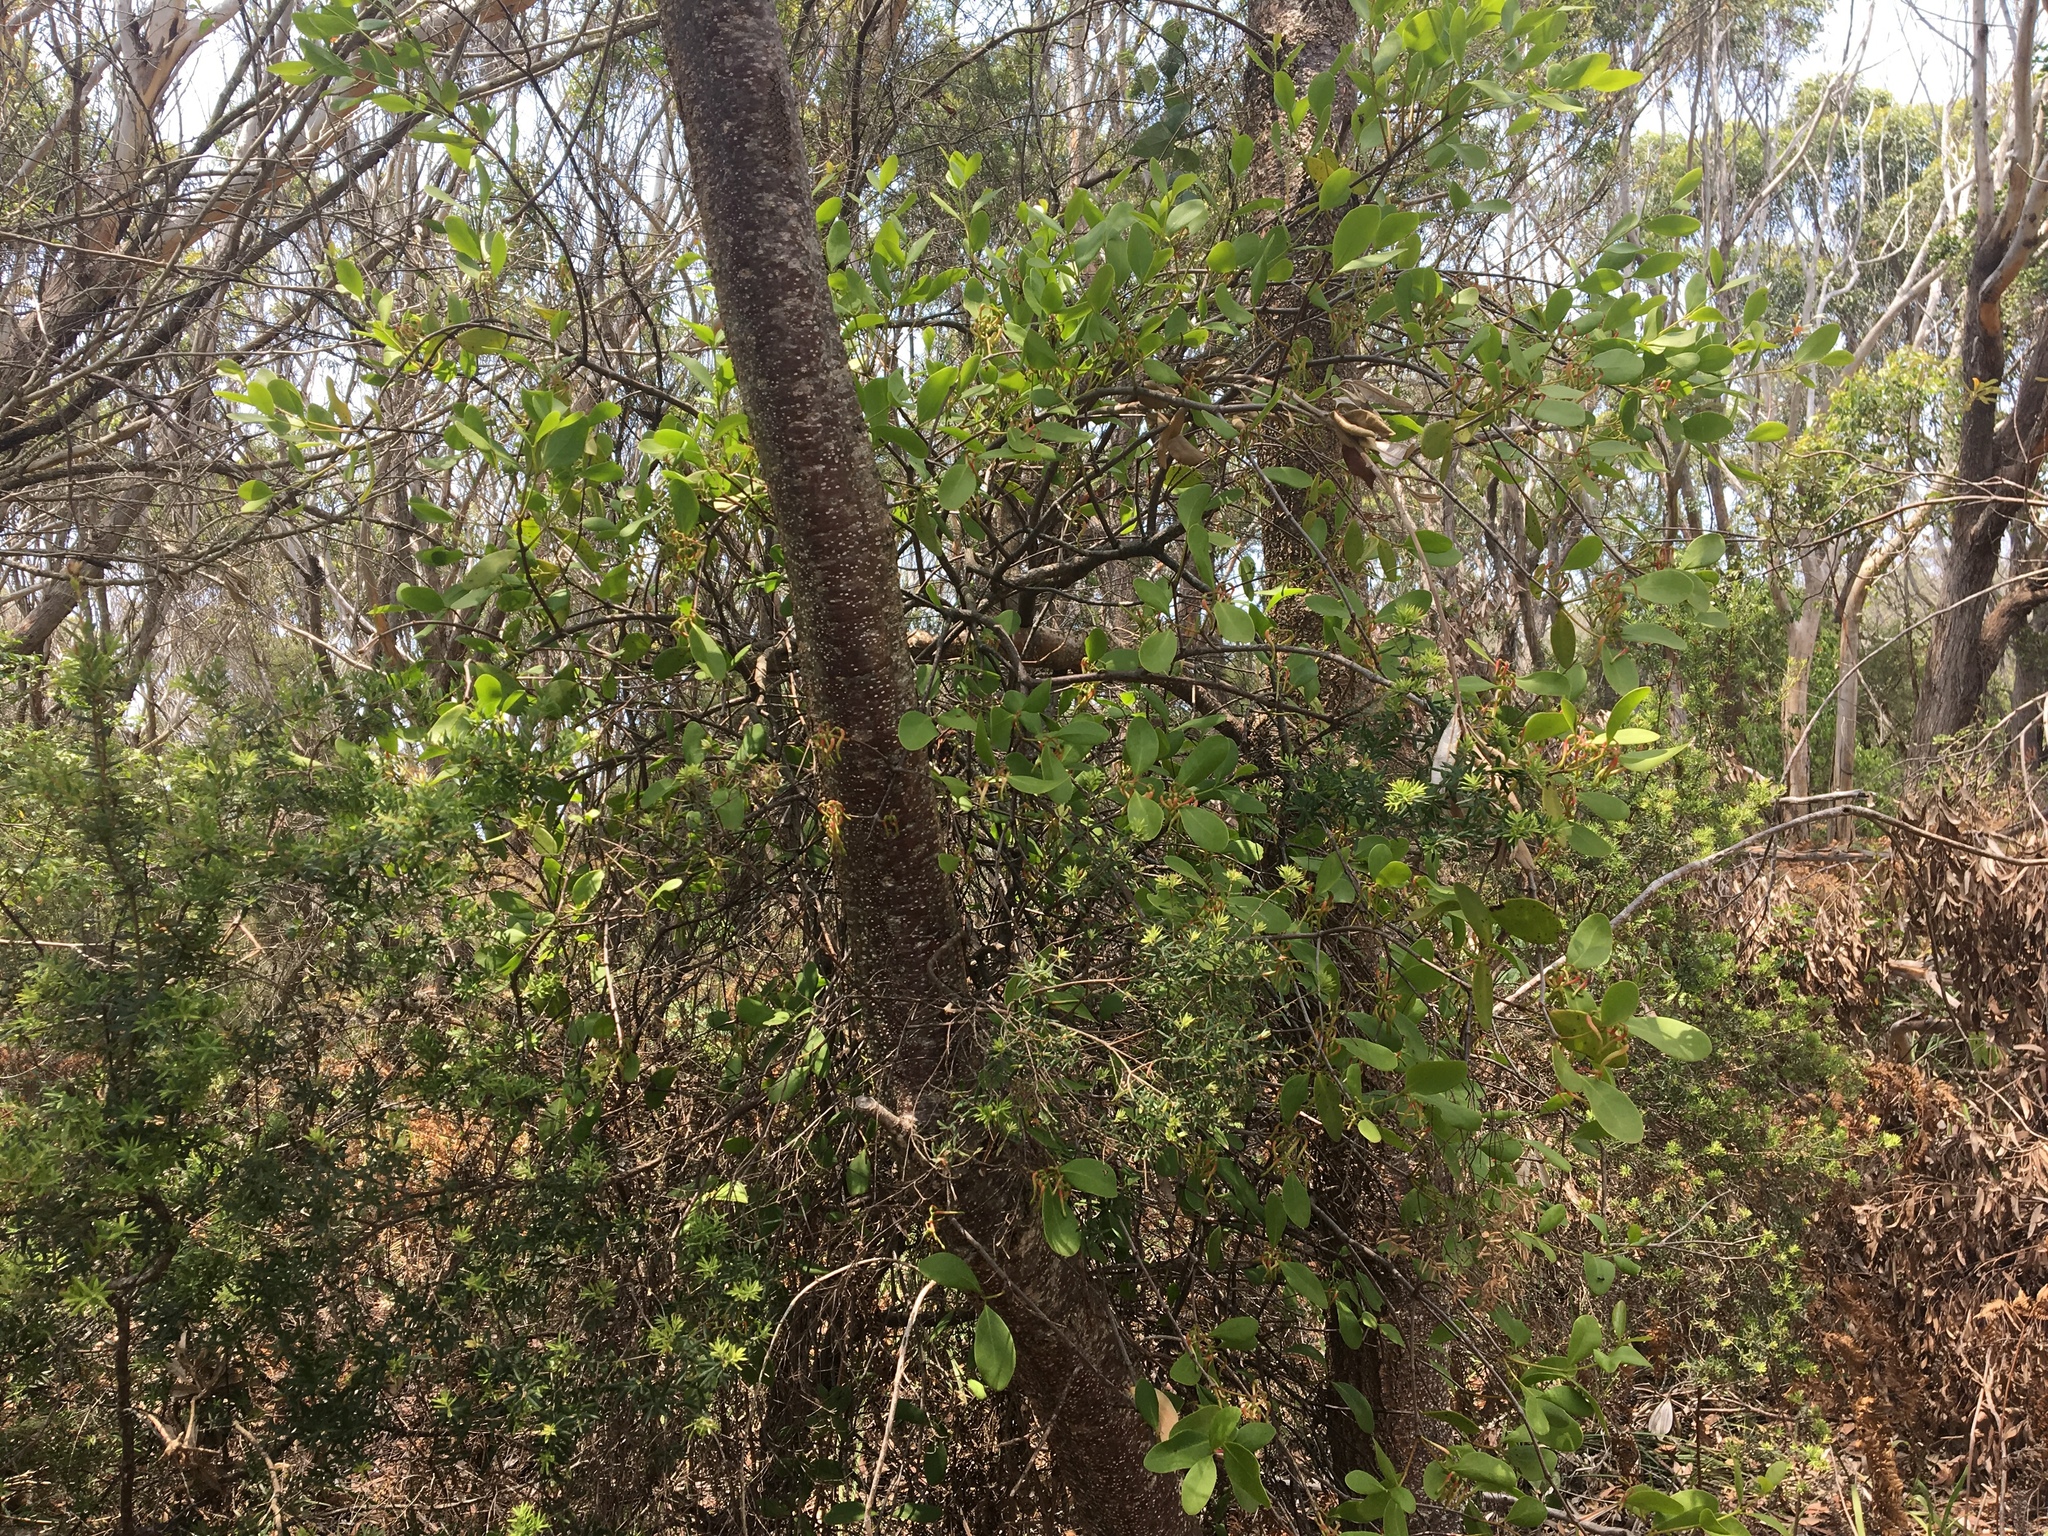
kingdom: Plantae
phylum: Tracheophyta
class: Magnoliopsida
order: Santalales
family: Loranthaceae
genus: Muellerina
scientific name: Muellerina celastroides
